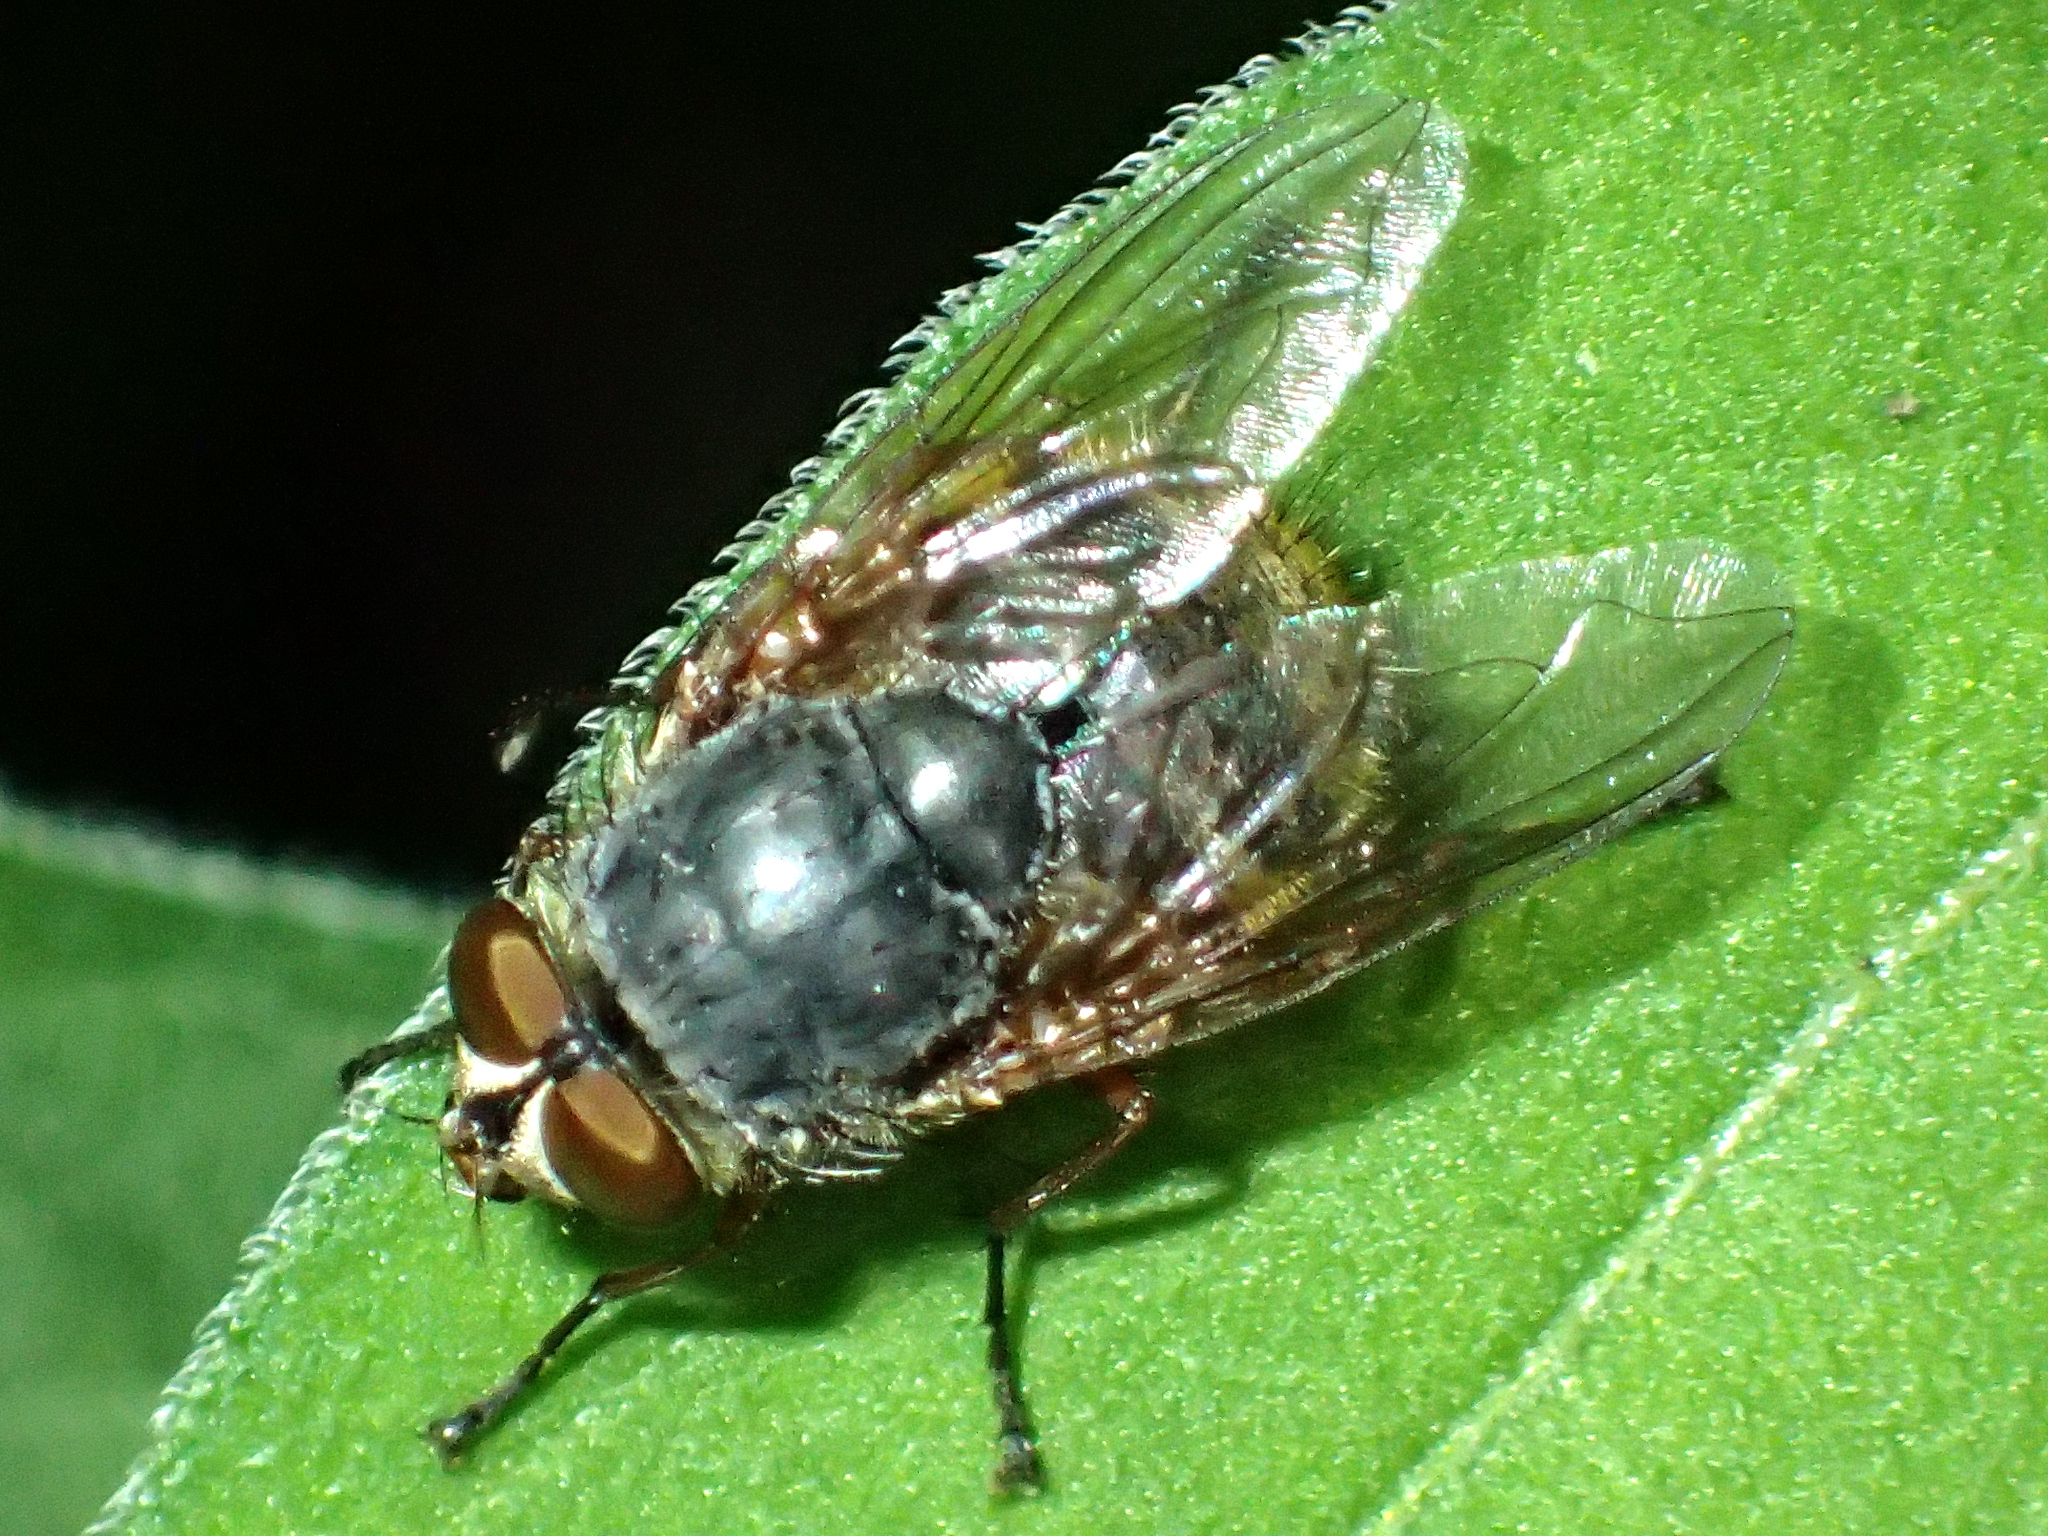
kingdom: Animalia
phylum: Arthropoda
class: Insecta
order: Diptera
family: Calliphoridae
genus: Calliphora
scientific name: Calliphora stygia
